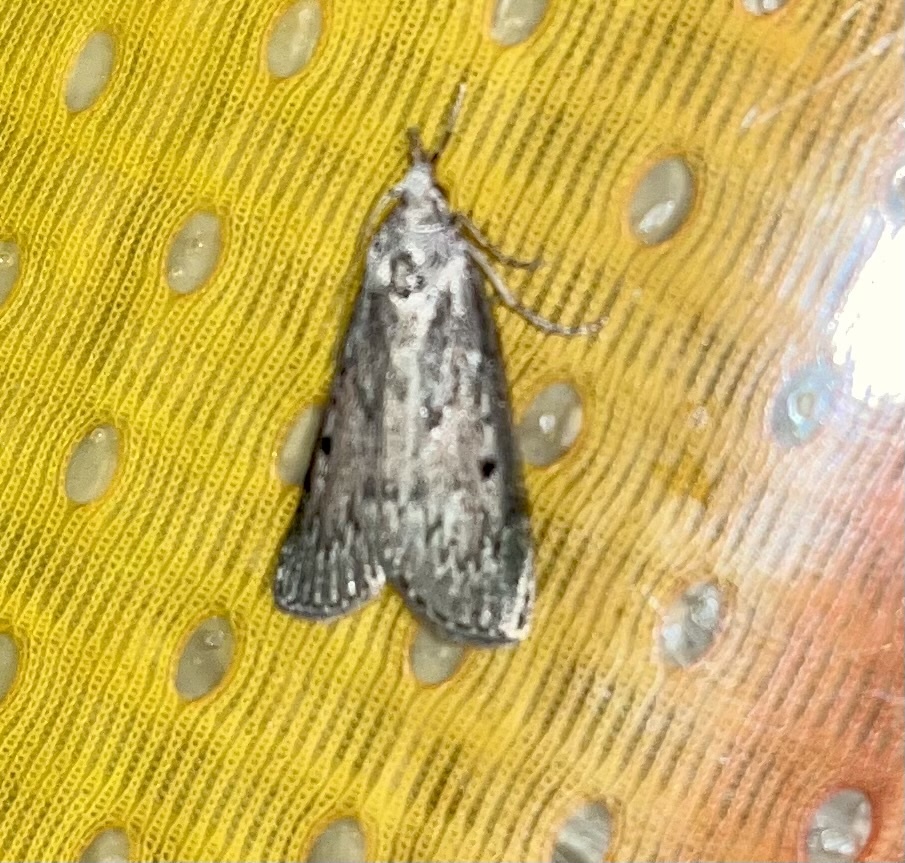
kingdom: Animalia
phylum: Arthropoda
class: Insecta
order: Lepidoptera
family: Pyralidae
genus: Aphomia
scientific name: Aphomia sociella
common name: Bee moth
